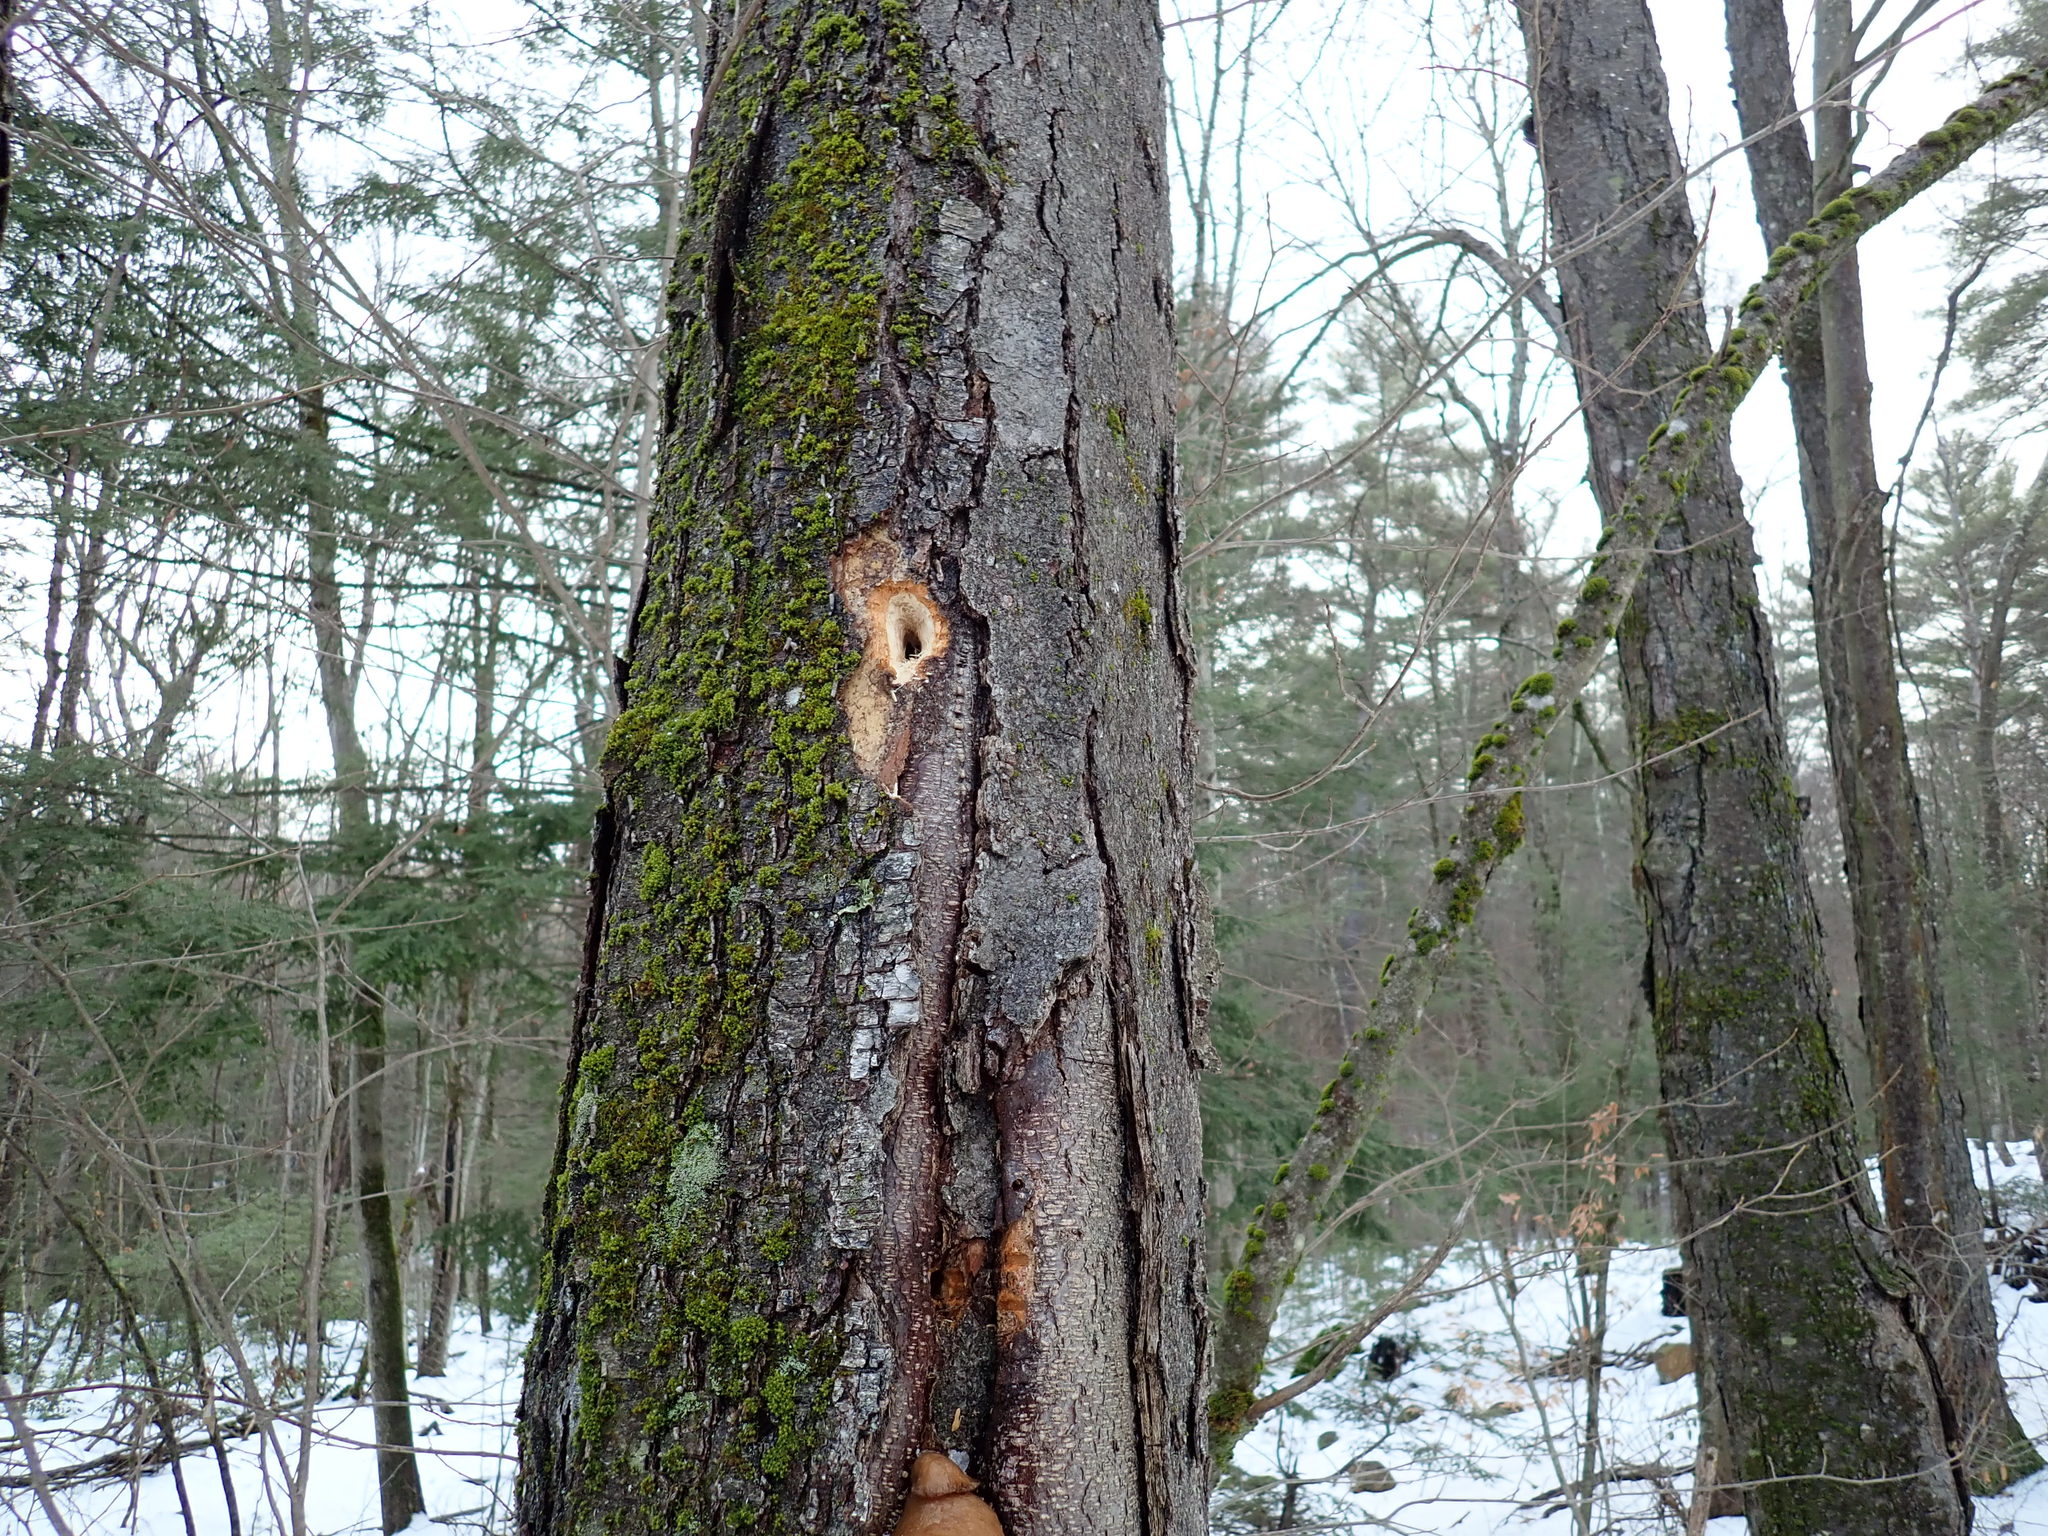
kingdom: Animalia
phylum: Chordata
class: Aves
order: Piciformes
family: Picidae
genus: Dryocopus
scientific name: Dryocopus pileatus
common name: Pileated woodpecker
